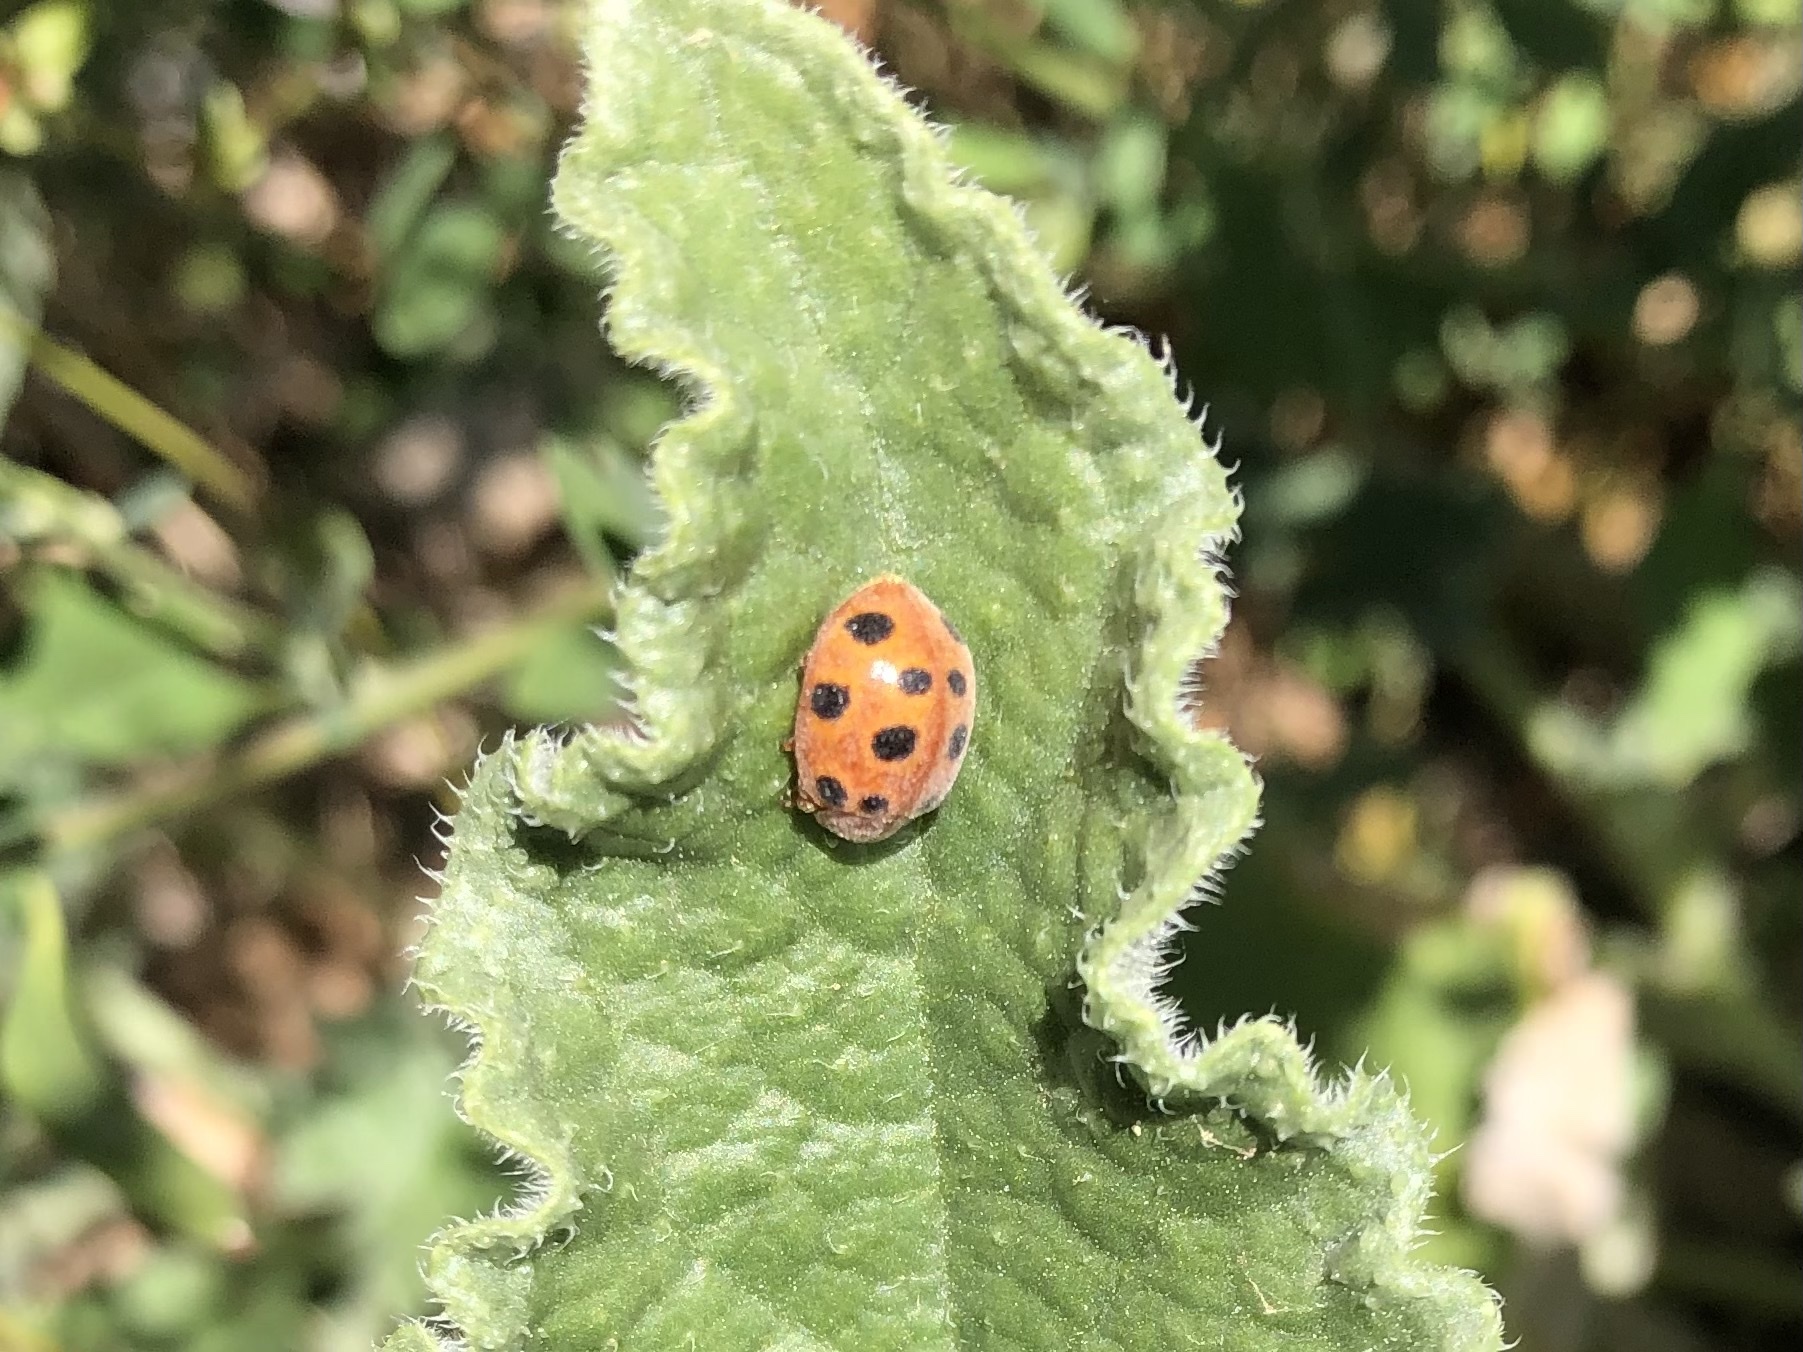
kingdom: Animalia
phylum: Arthropoda
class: Insecta
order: Coleoptera
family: Coccinellidae
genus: Chnootriba
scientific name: Chnootriba elaterii
